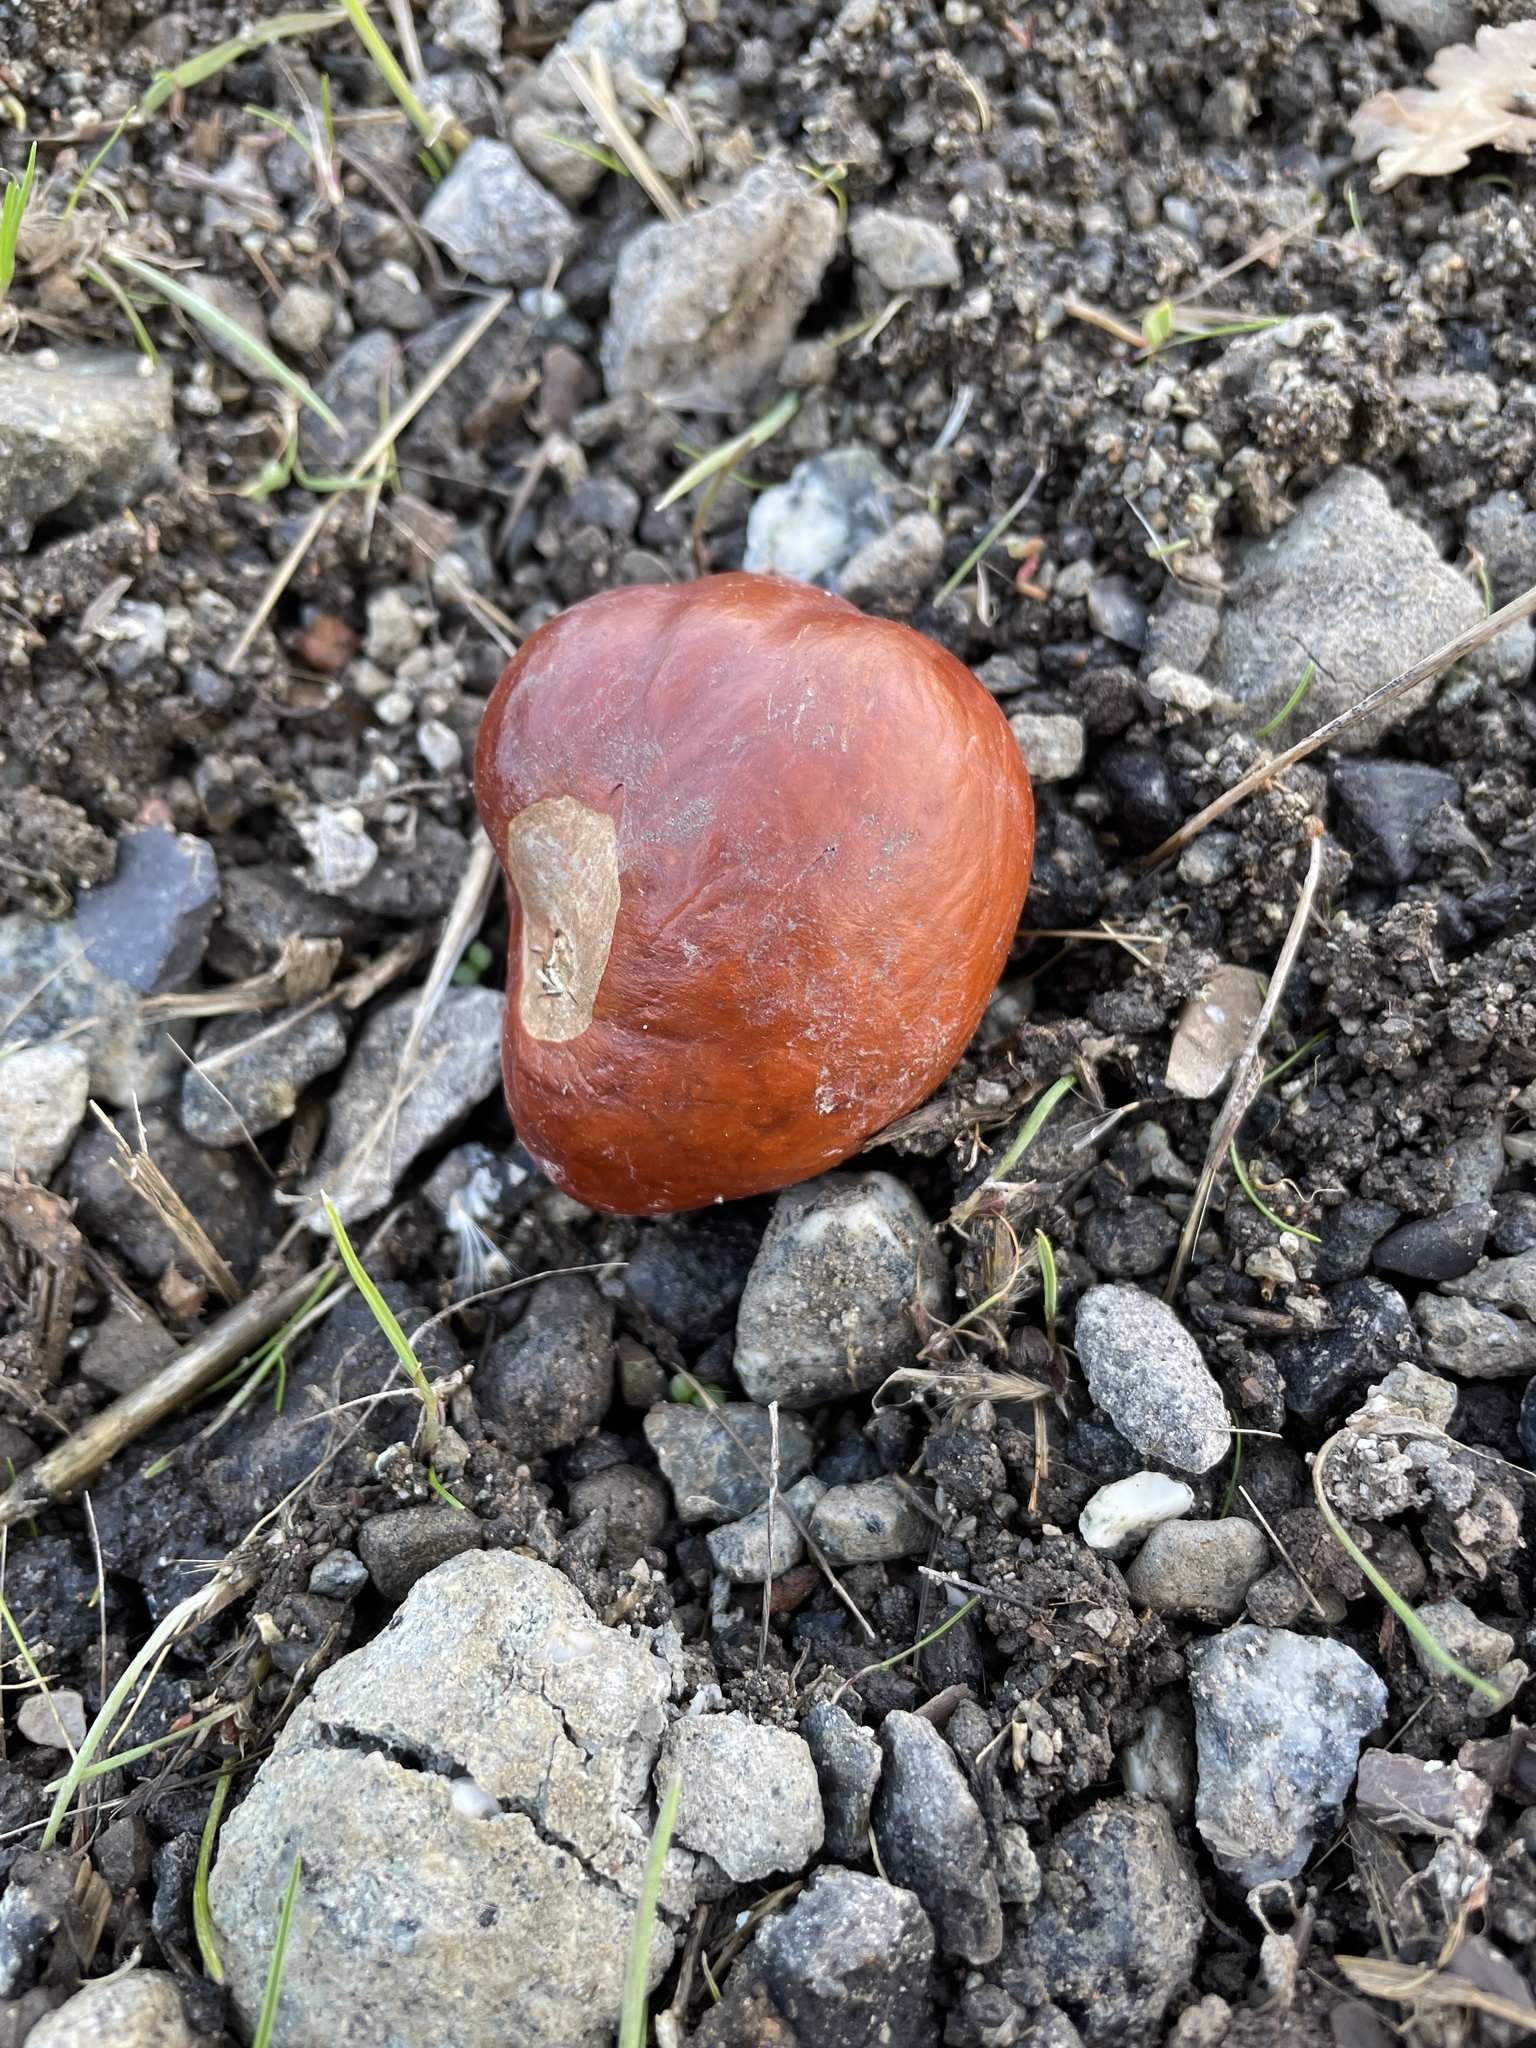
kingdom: Plantae
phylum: Tracheophyta
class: Magnoliopsida
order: Sapindales
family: Sapindaceae
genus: Aesculus
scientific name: Aesculus californica
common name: California buckeye
